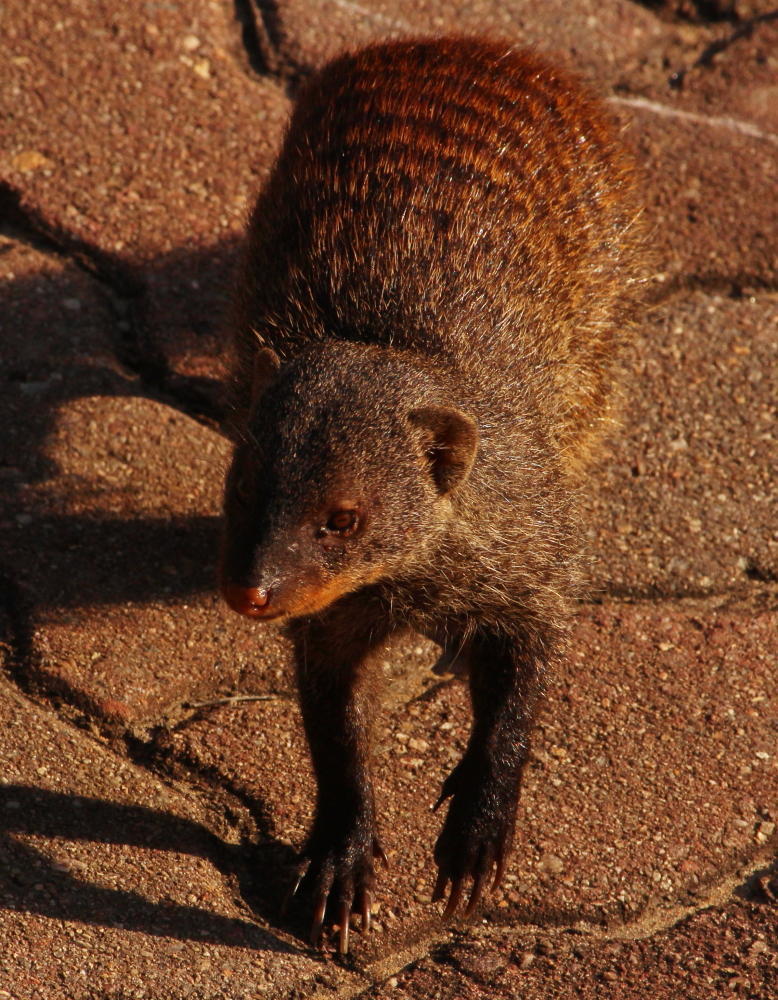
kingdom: Animalia
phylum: Chordata
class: Mammalia
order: Carnivora
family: Herpestidae
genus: Mungos
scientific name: Mungos mungo
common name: Banded mongoose
